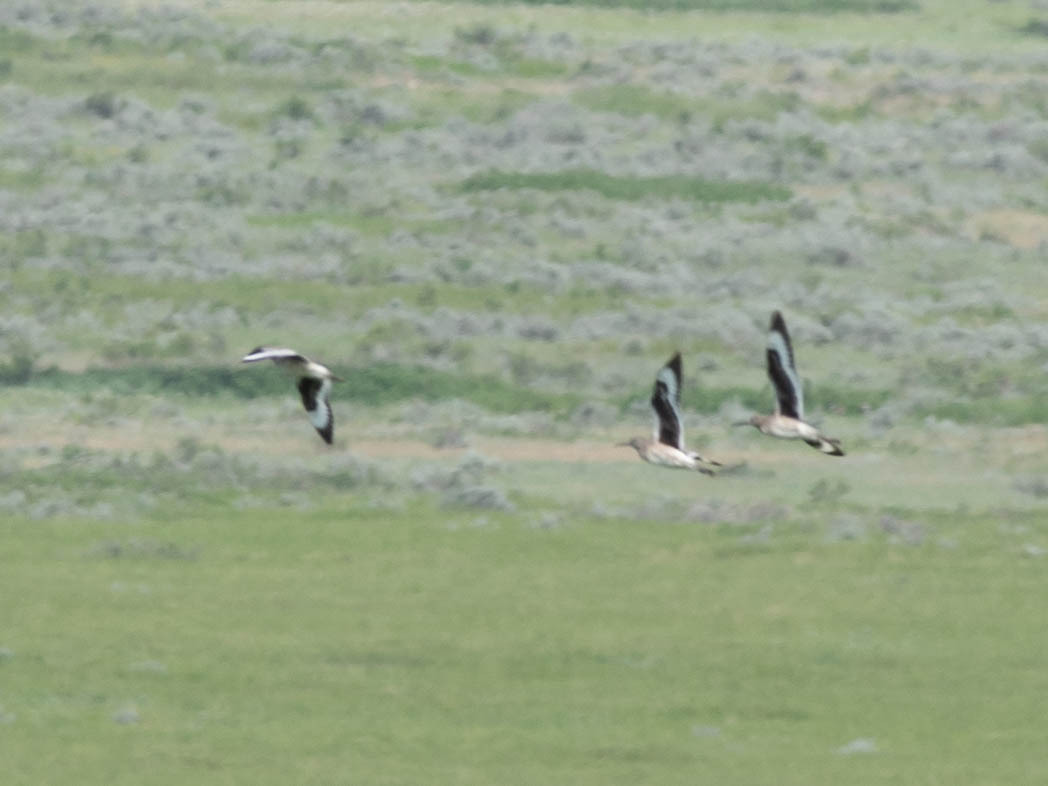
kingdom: Animalia
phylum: Chordata
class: Aves
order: Charadriiformes
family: Scolopacidae
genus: Tringa
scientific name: Tringa semipalmata
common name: Willet
